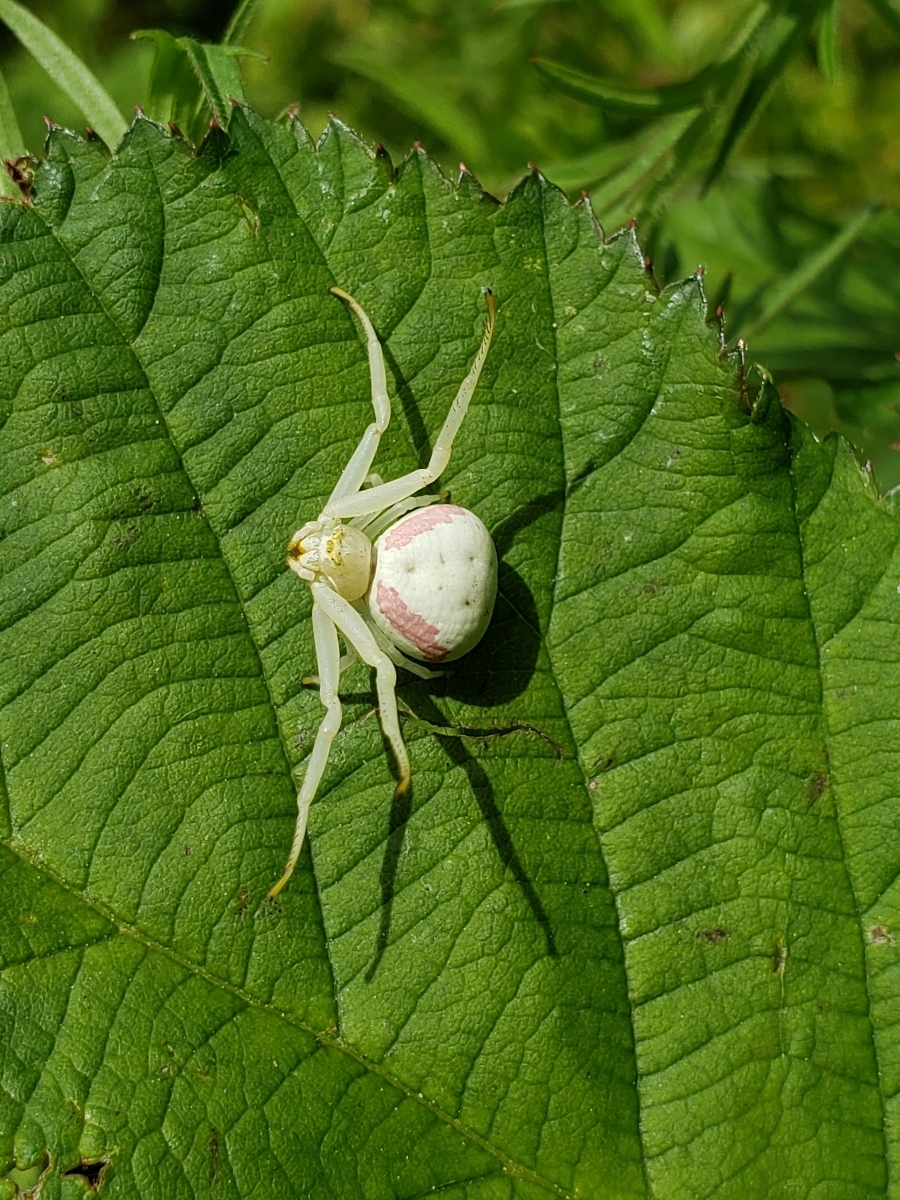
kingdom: Animalia
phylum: Arthropoda
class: Arachnida
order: Araneae
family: Thomisidae
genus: Misumena
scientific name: Misumena vatia
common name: Goldenrod crab spider
